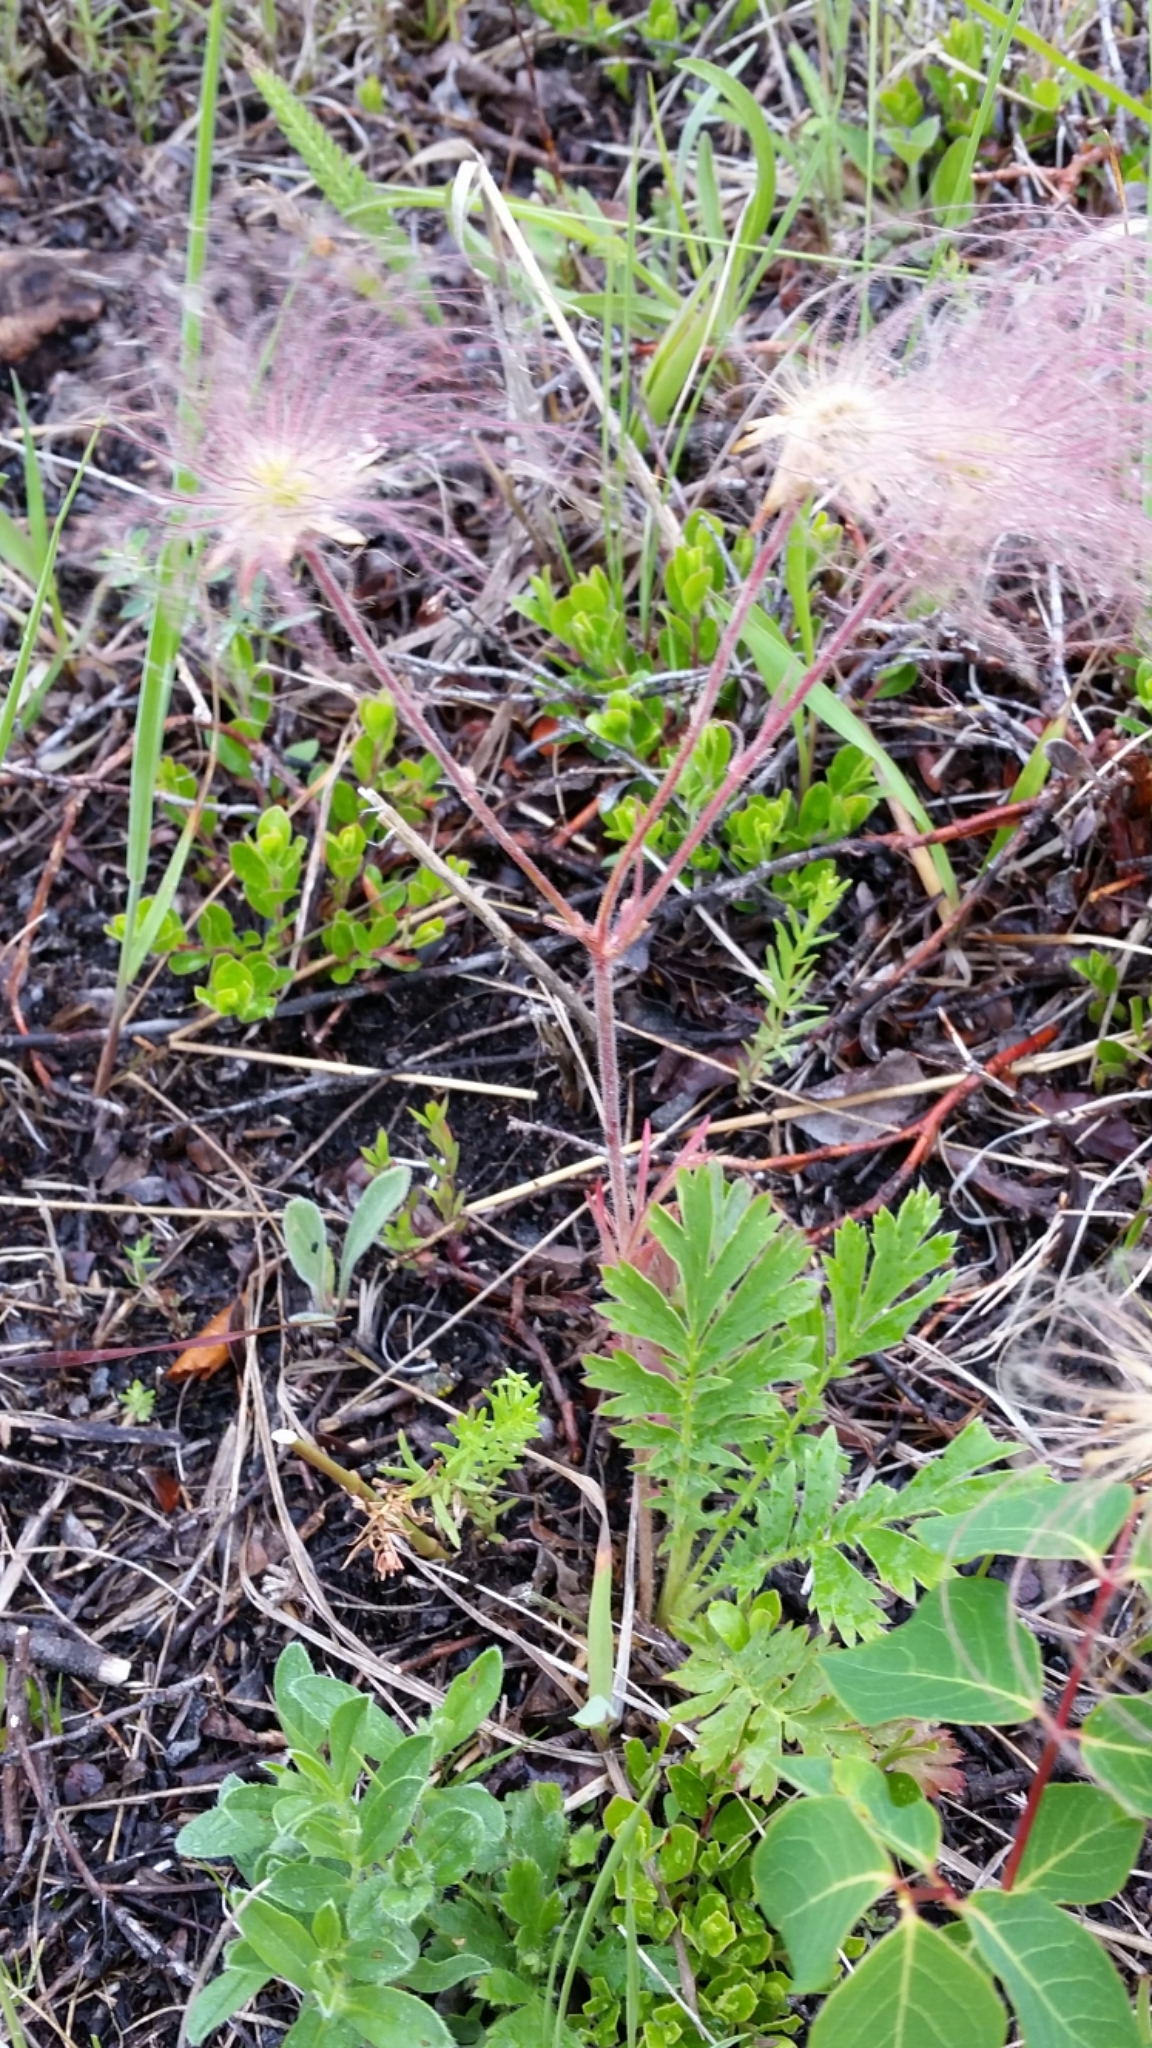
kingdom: Plantae
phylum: Tracheophyta
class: Magnoliopsida
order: Rosales
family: Rosaceae
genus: Geum
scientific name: Geum triflorum
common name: Old man's whiskers
